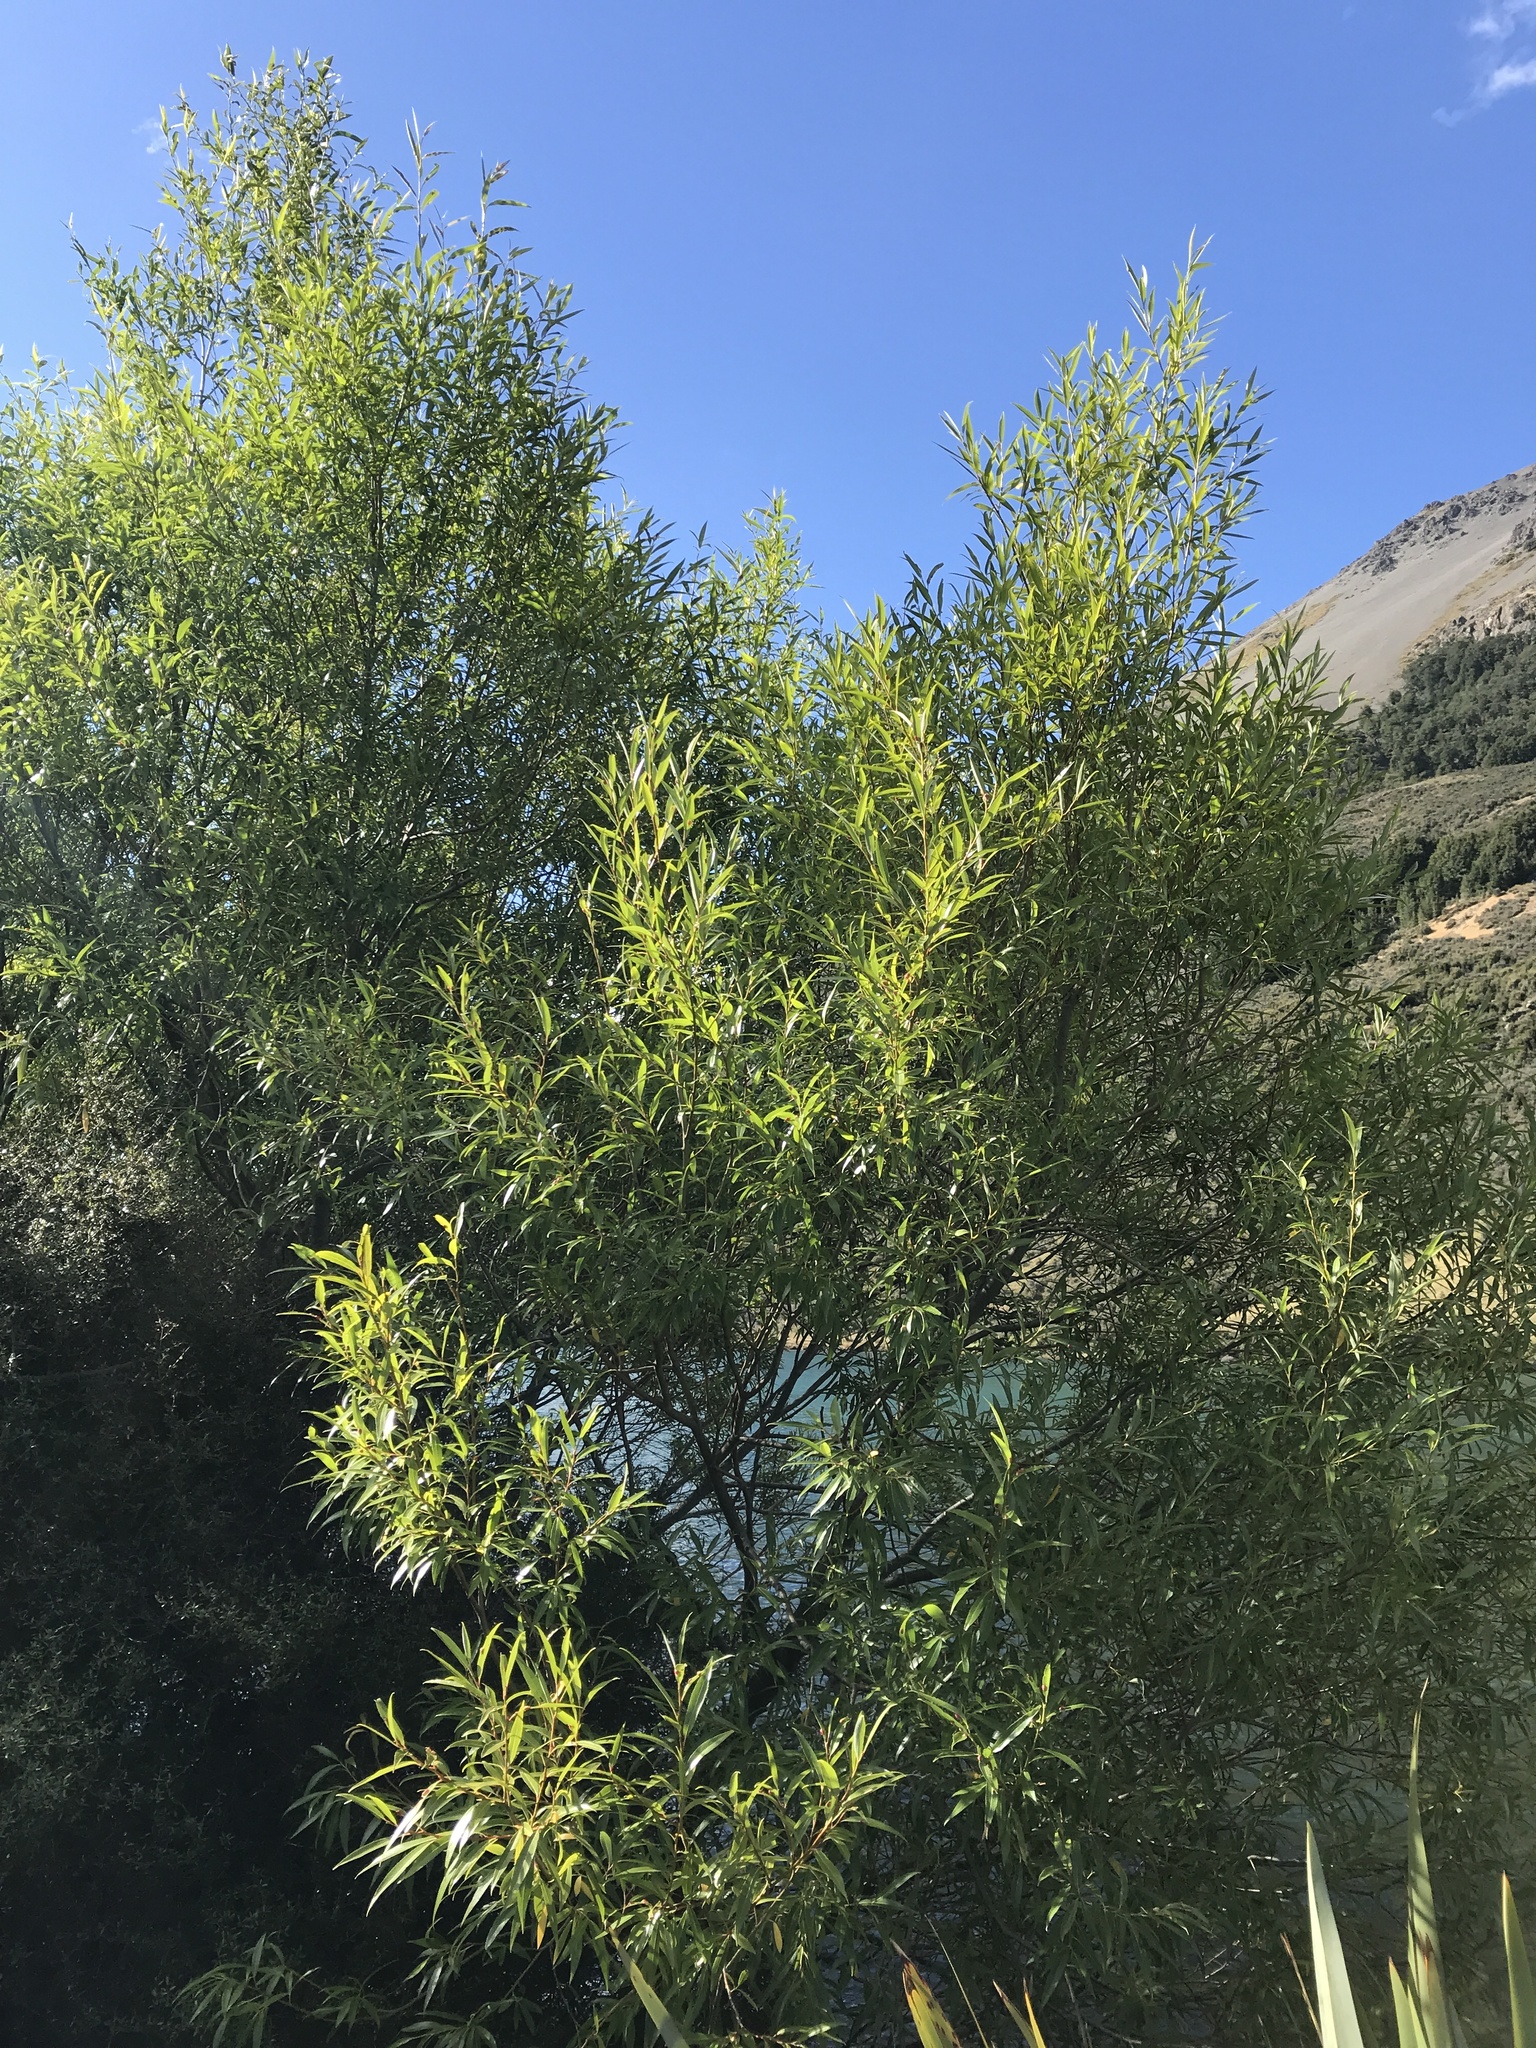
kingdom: Plantae
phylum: Tracheophyta
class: Magnoliopsida
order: Malpighiales
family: Salicaceae
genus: Salix
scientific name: Salix fragilis
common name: Crack willow
